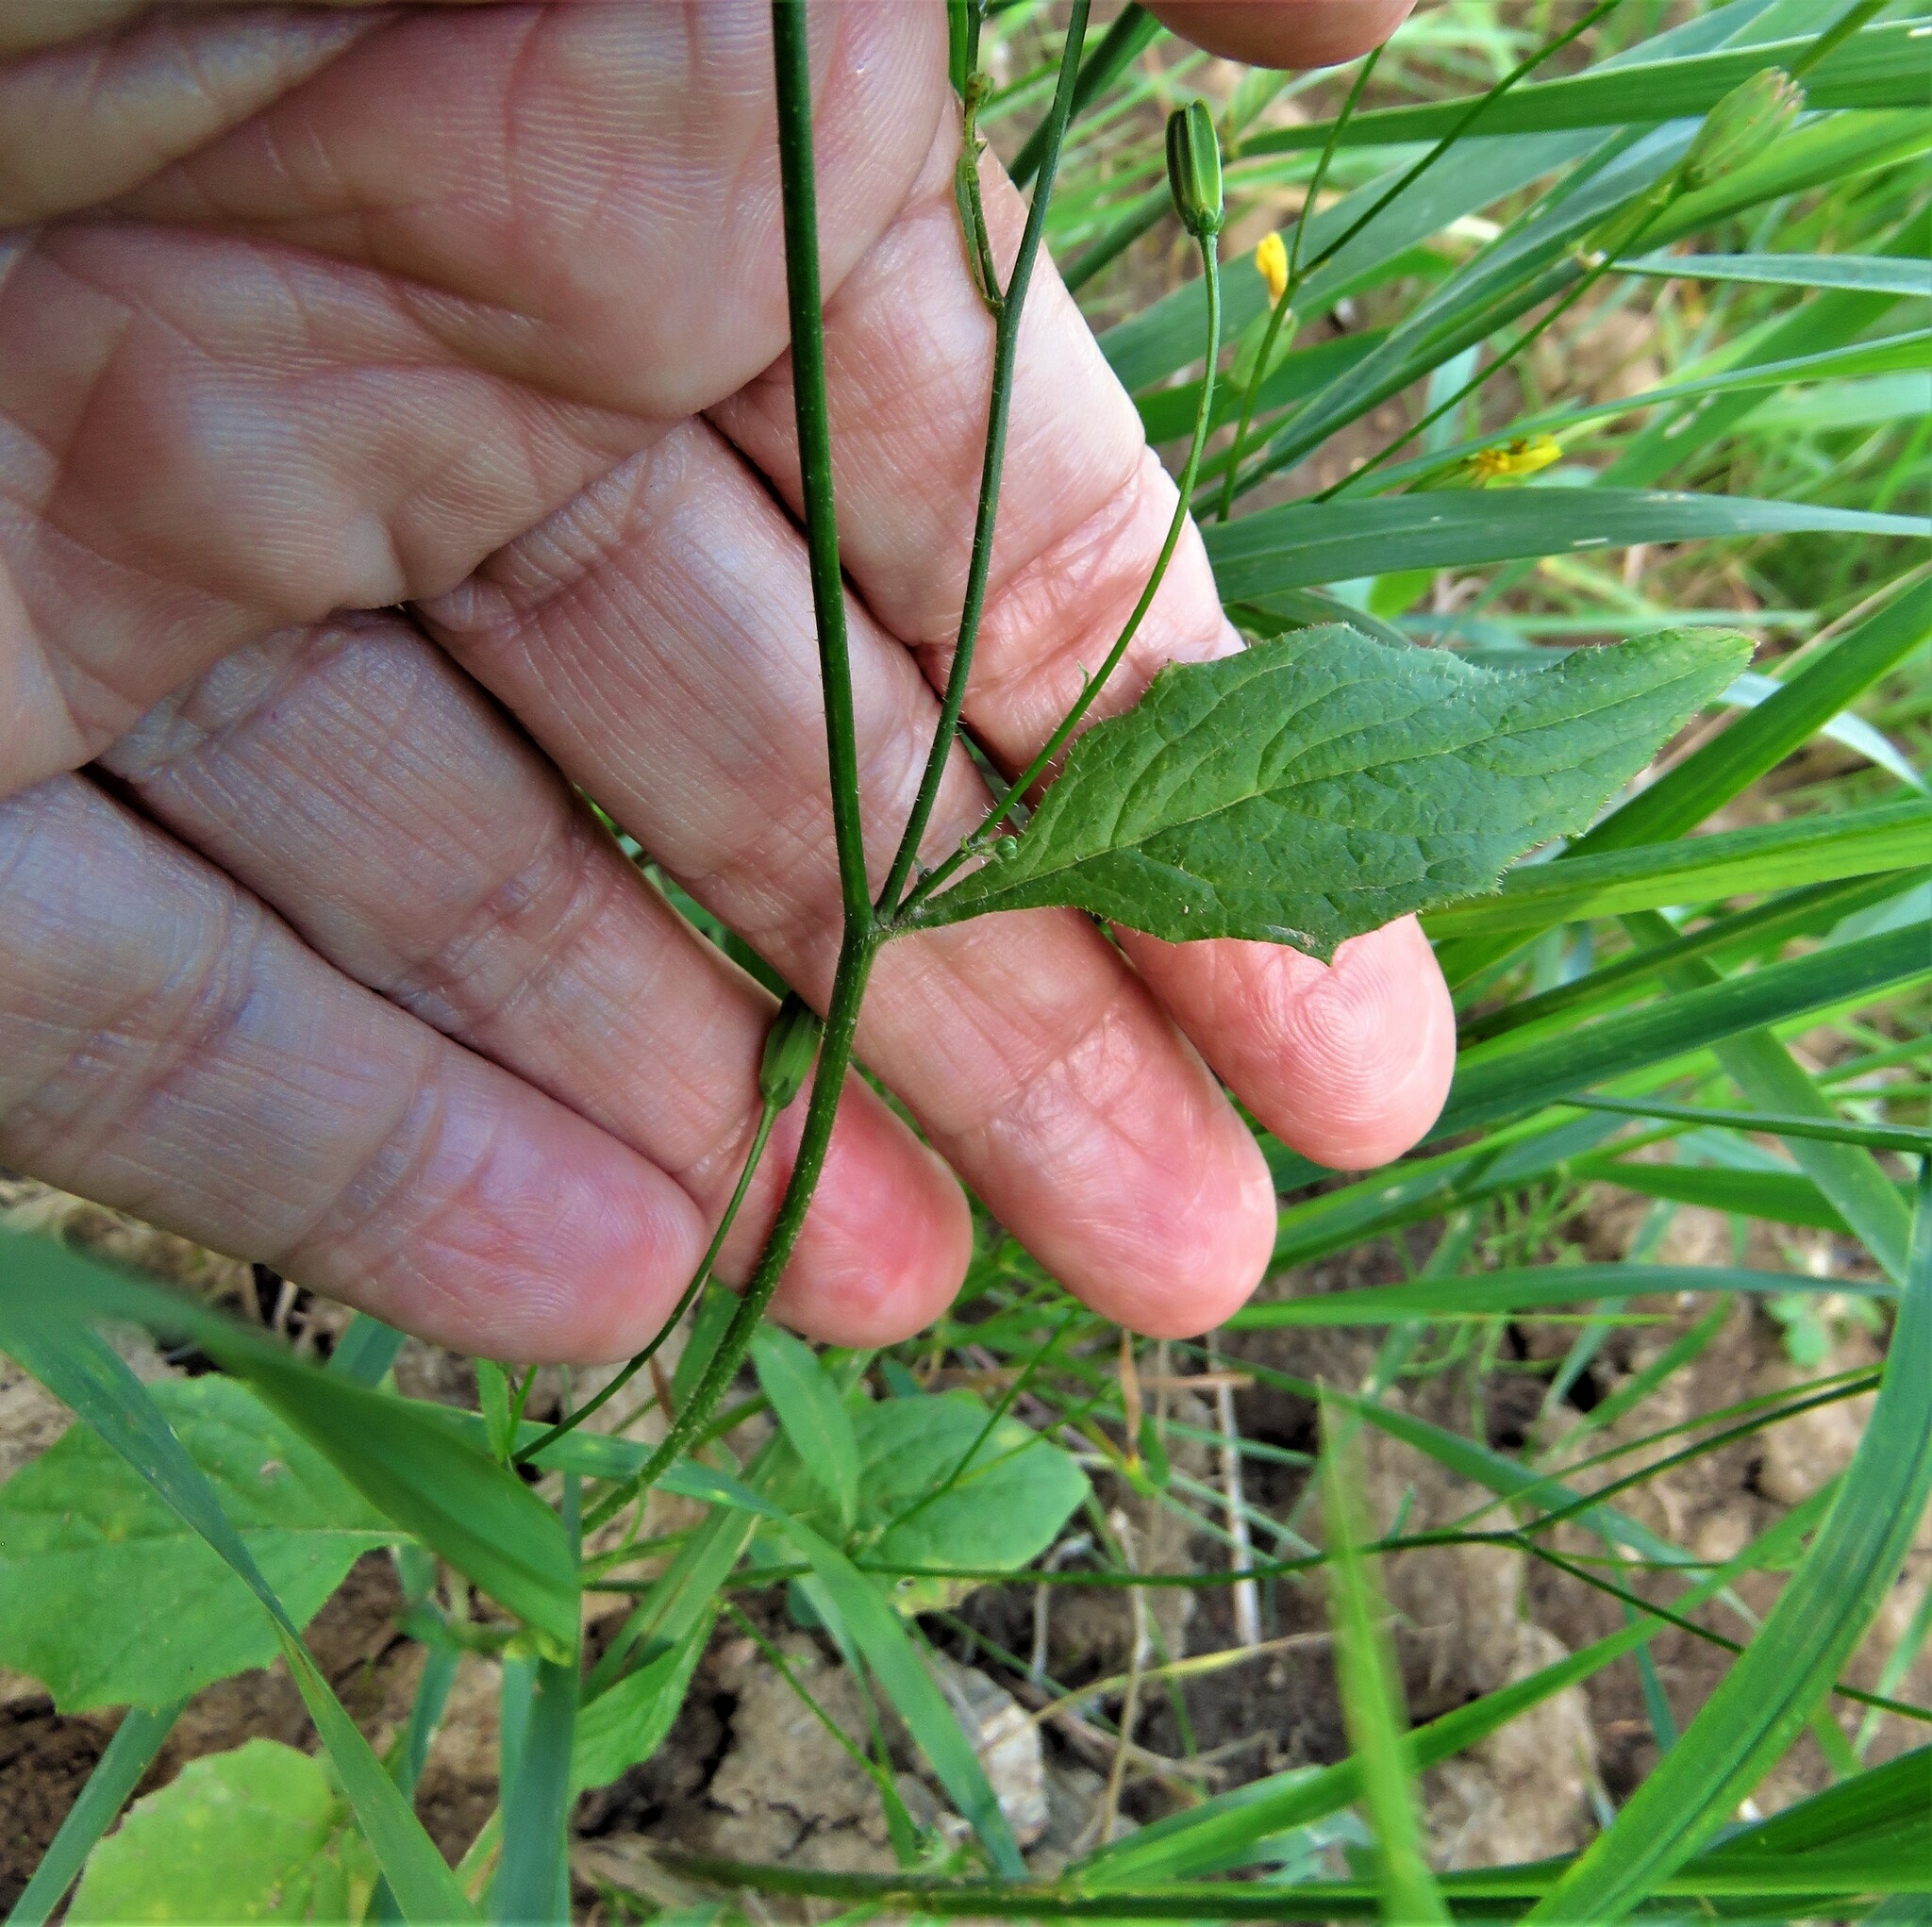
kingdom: Plantae
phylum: Tracheophyta
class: Magnoliopsida
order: Asterales
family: Asteraceae
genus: Lapsana
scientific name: Lapsana communis
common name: Nipplewort
